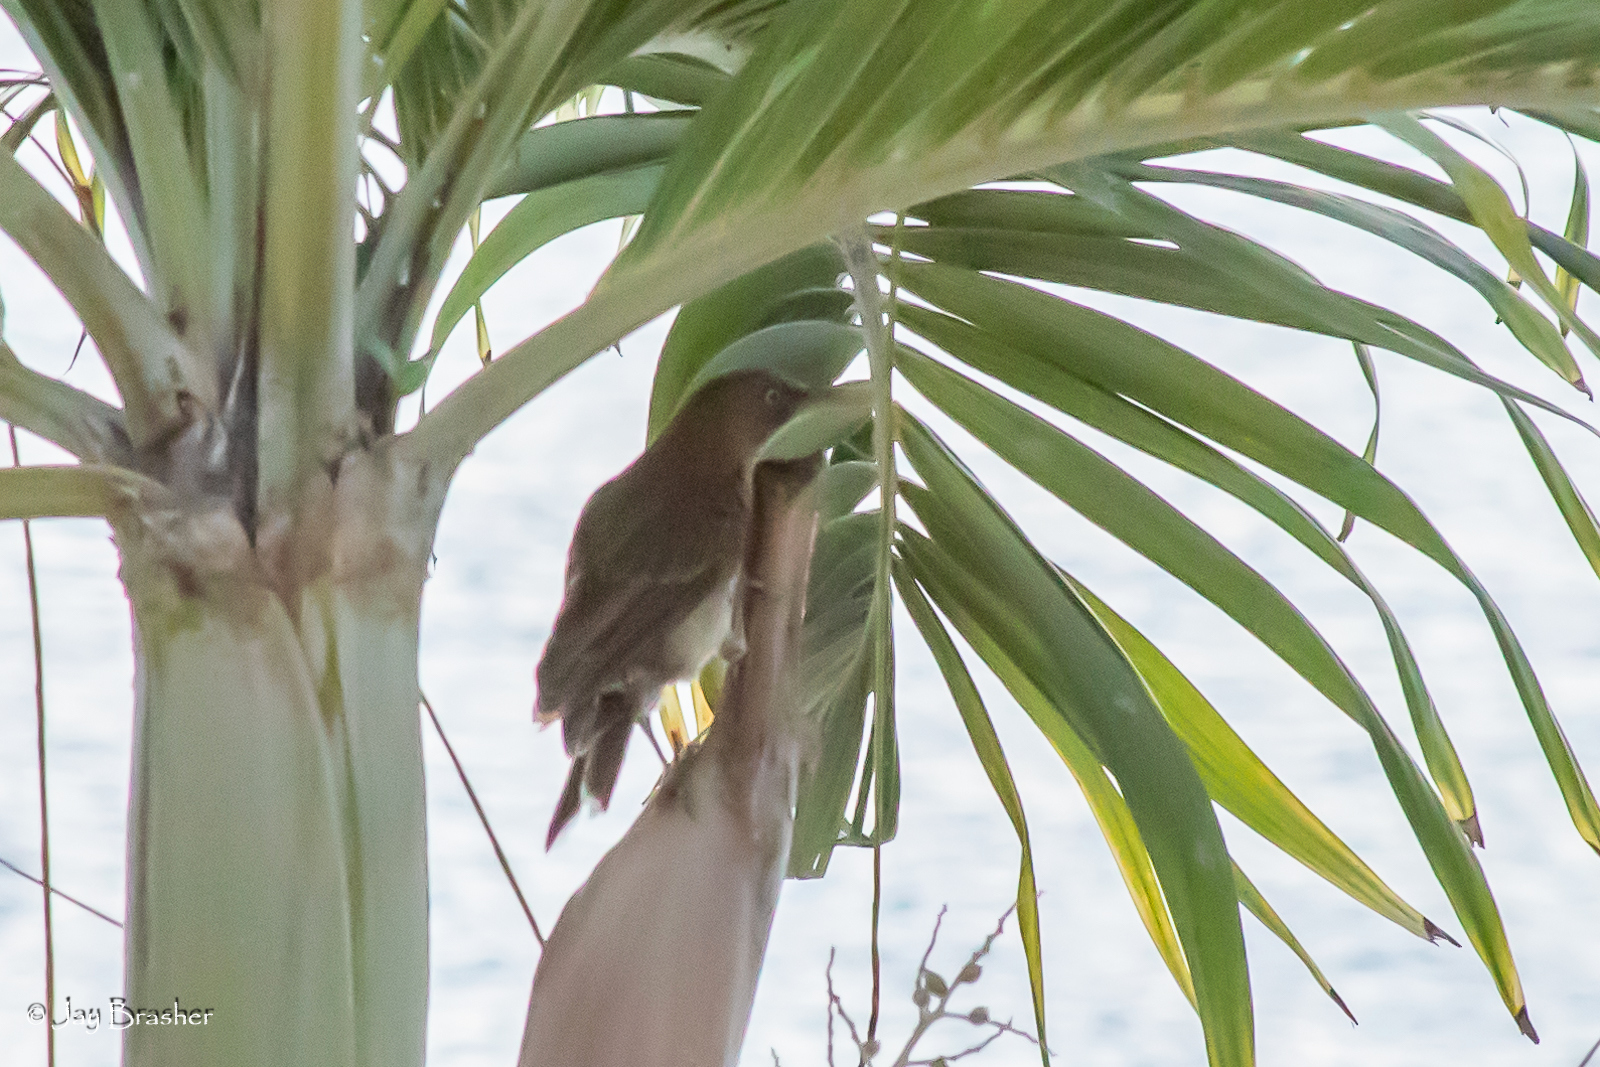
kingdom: Animalia
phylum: Chordata
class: Aves
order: Passeriformes
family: Mimidae
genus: Margarops
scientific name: Margarops fuscatus
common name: Pearly-eyed thrasher
